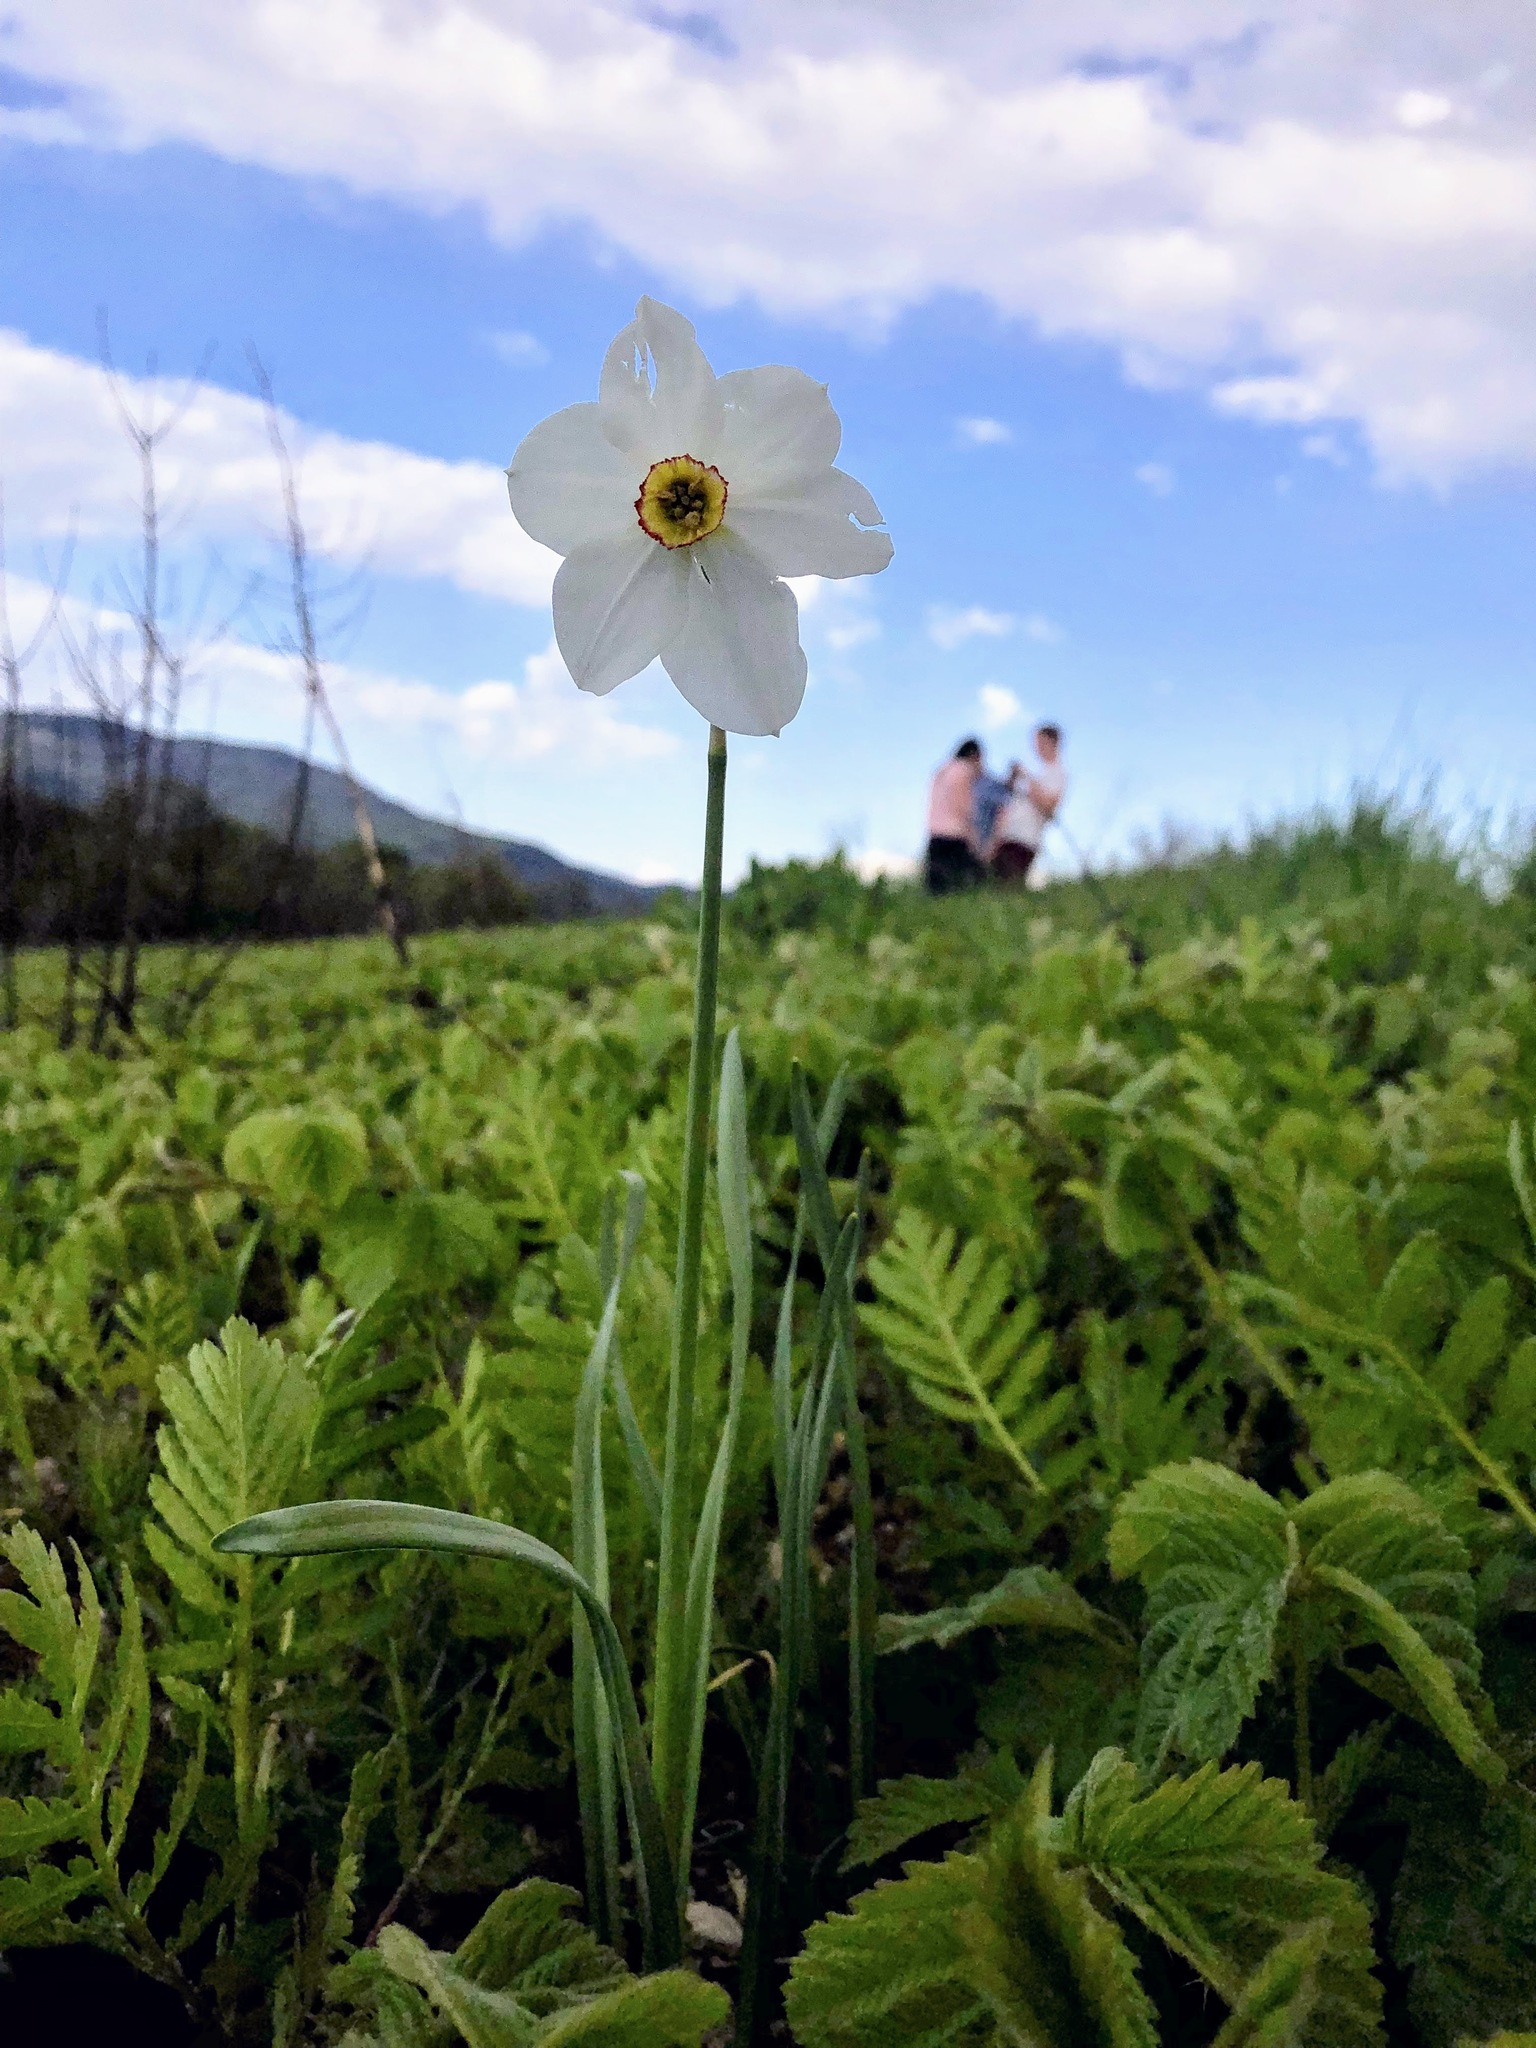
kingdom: Plantae
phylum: Tracheophyta
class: Liliopsida
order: Asparagales
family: Amaryllidaceae
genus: Narcissus
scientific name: Narcissus poeticus
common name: Pheasant's-eye daffodil
